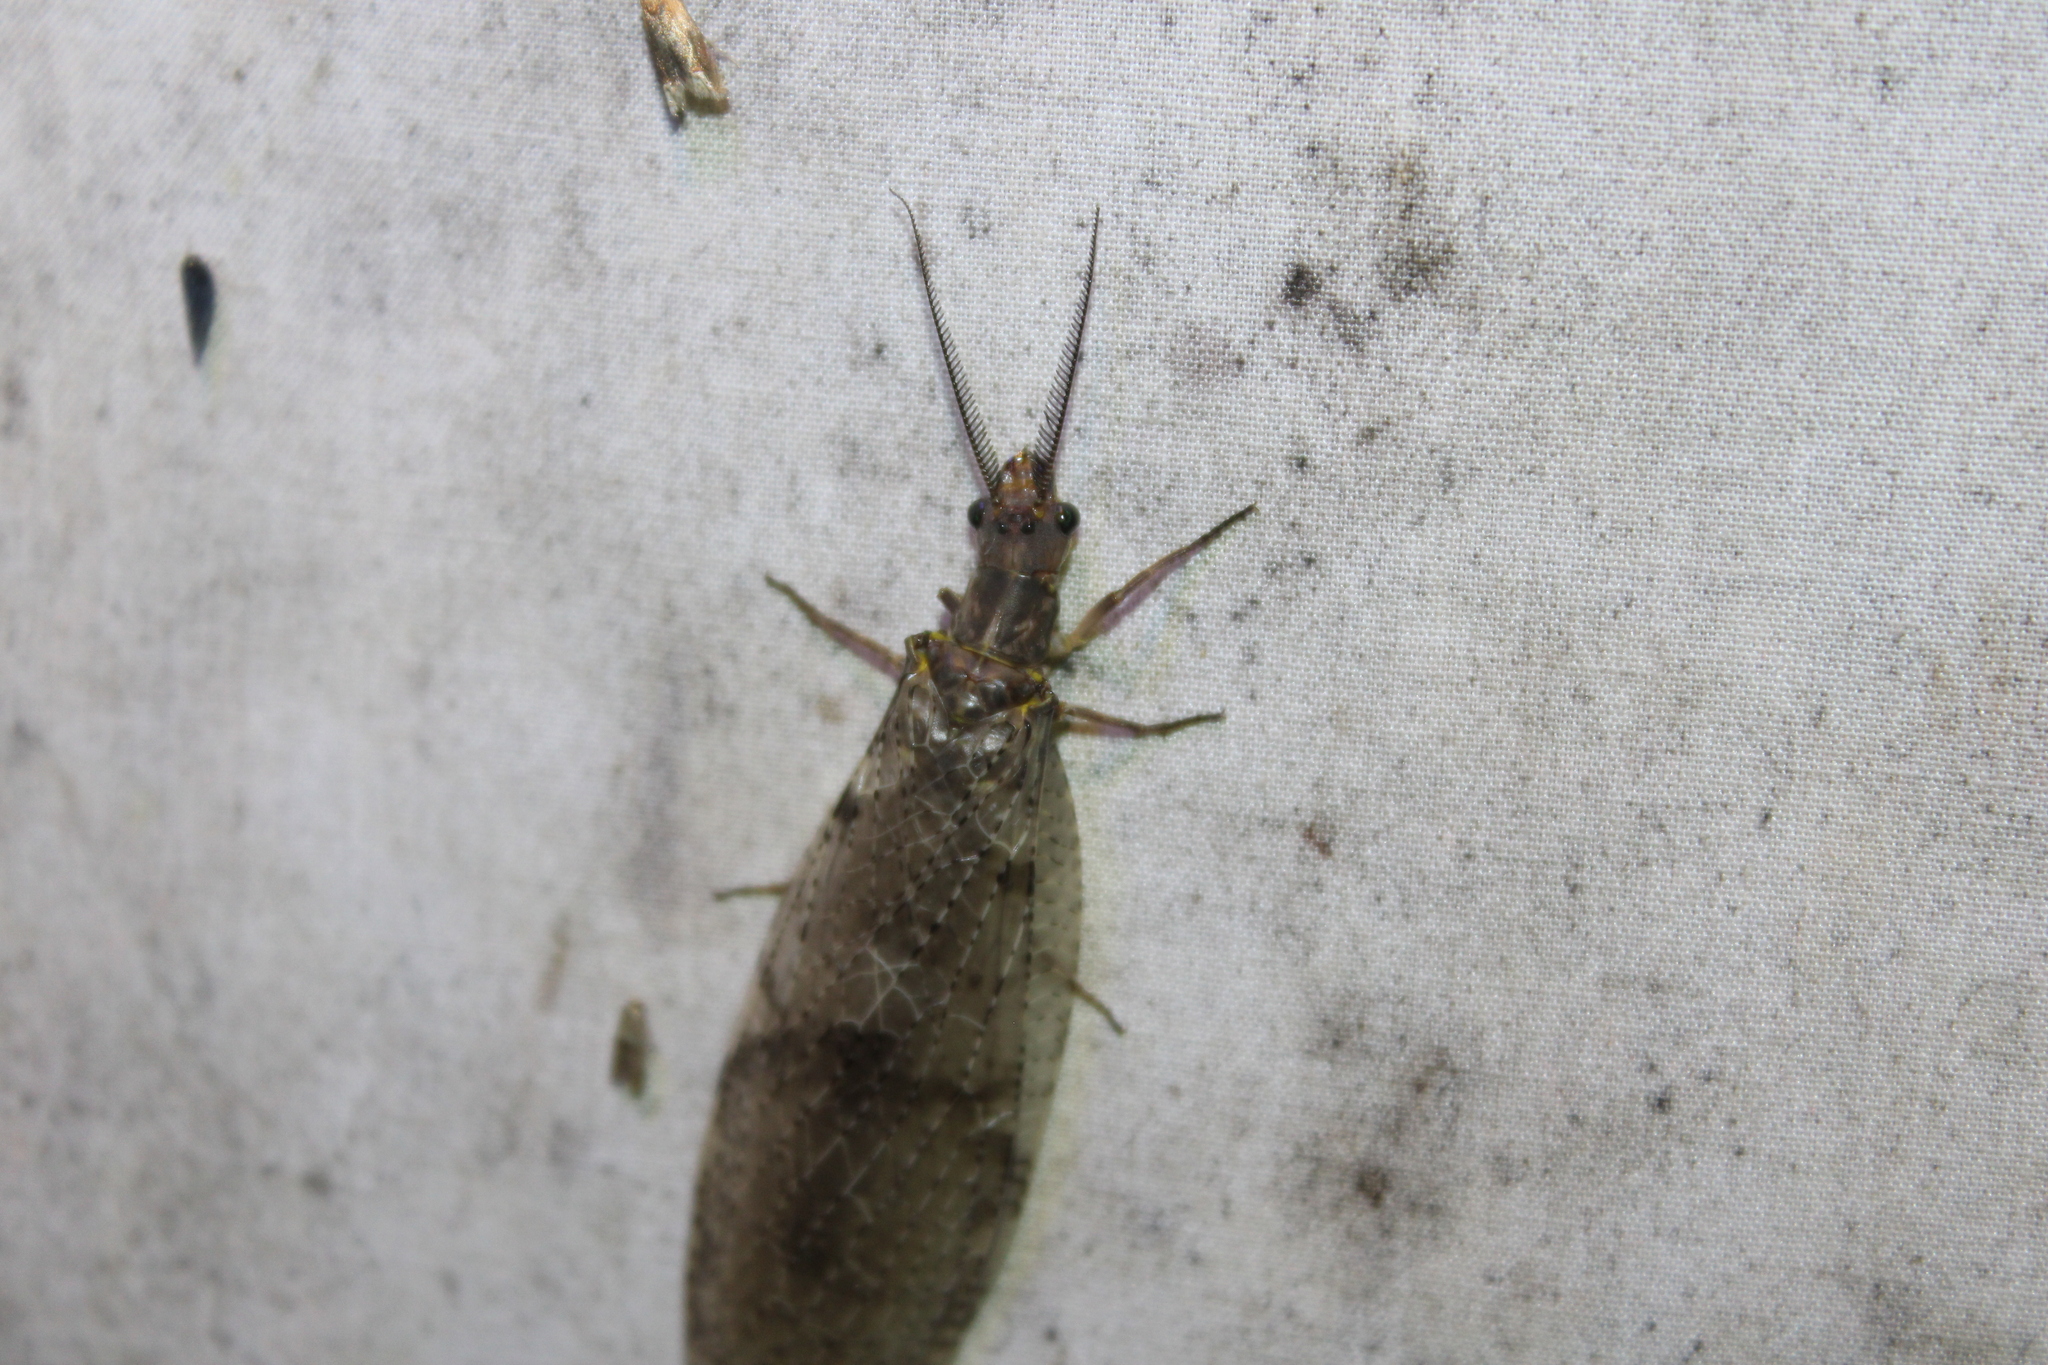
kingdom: Animalia
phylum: Arthropoda
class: Insecta
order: Megaloptera
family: Corydalidae
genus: Chauliodes
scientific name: Chauliodes pectinicornis
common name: Summer fishfly
